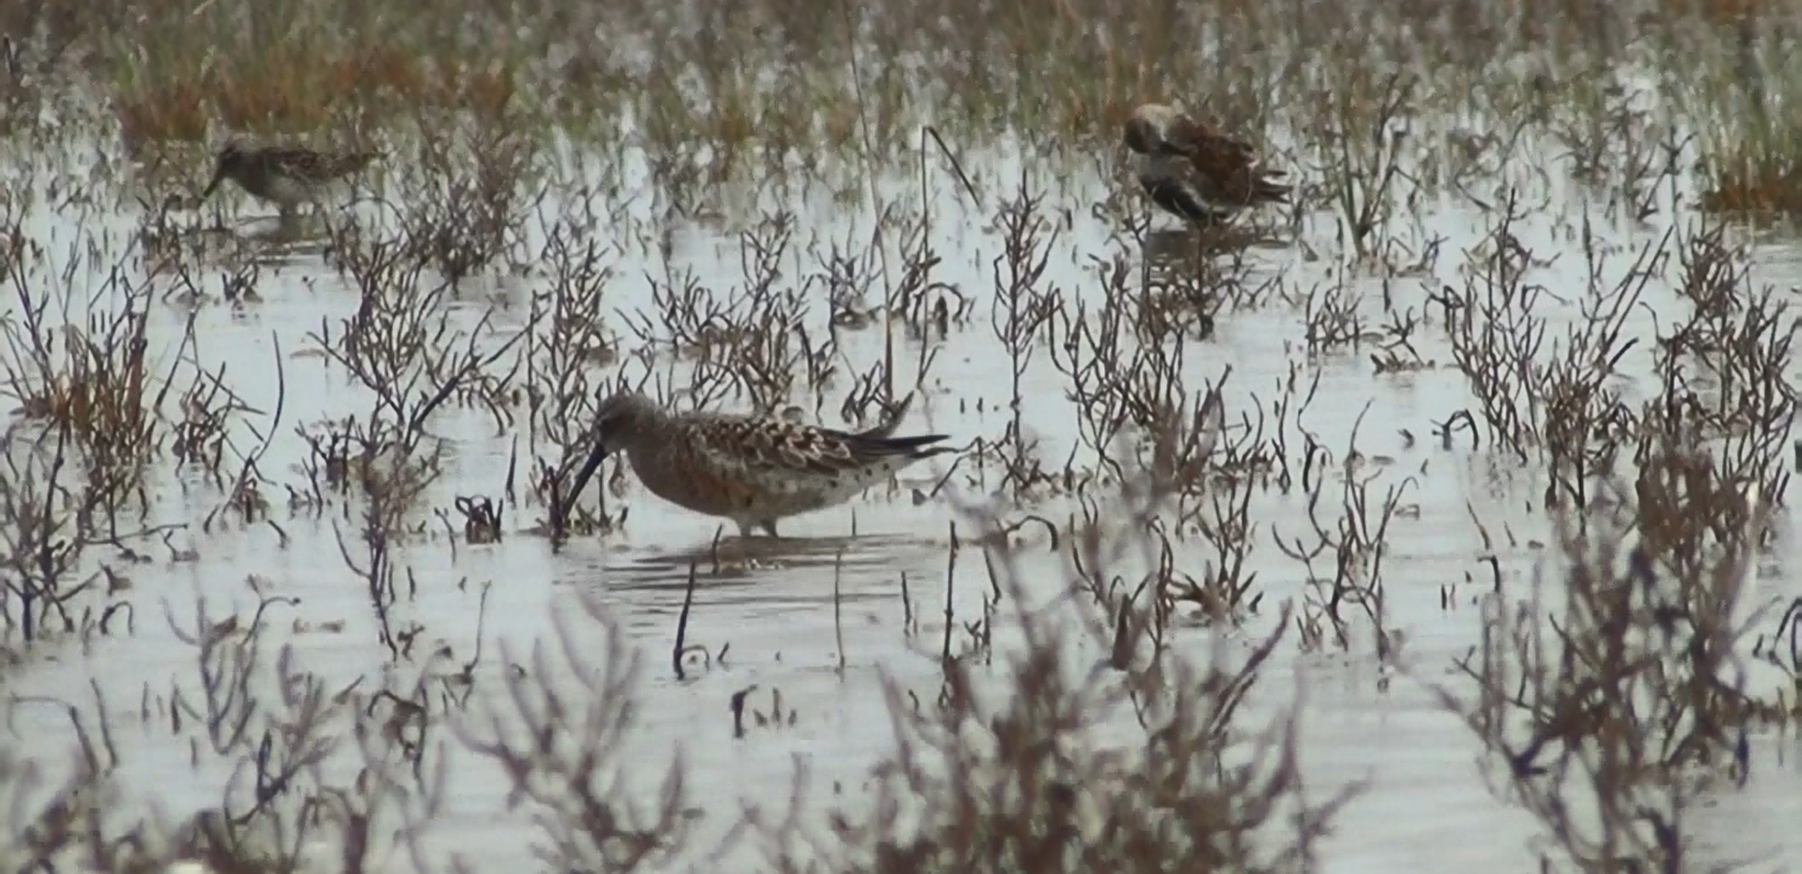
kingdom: Animalia
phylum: Chordata
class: Aves
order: Charadriiformes
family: Scolopacidae
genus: Calidris
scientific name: Calidris ferruginea
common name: Curlew sandpiper
